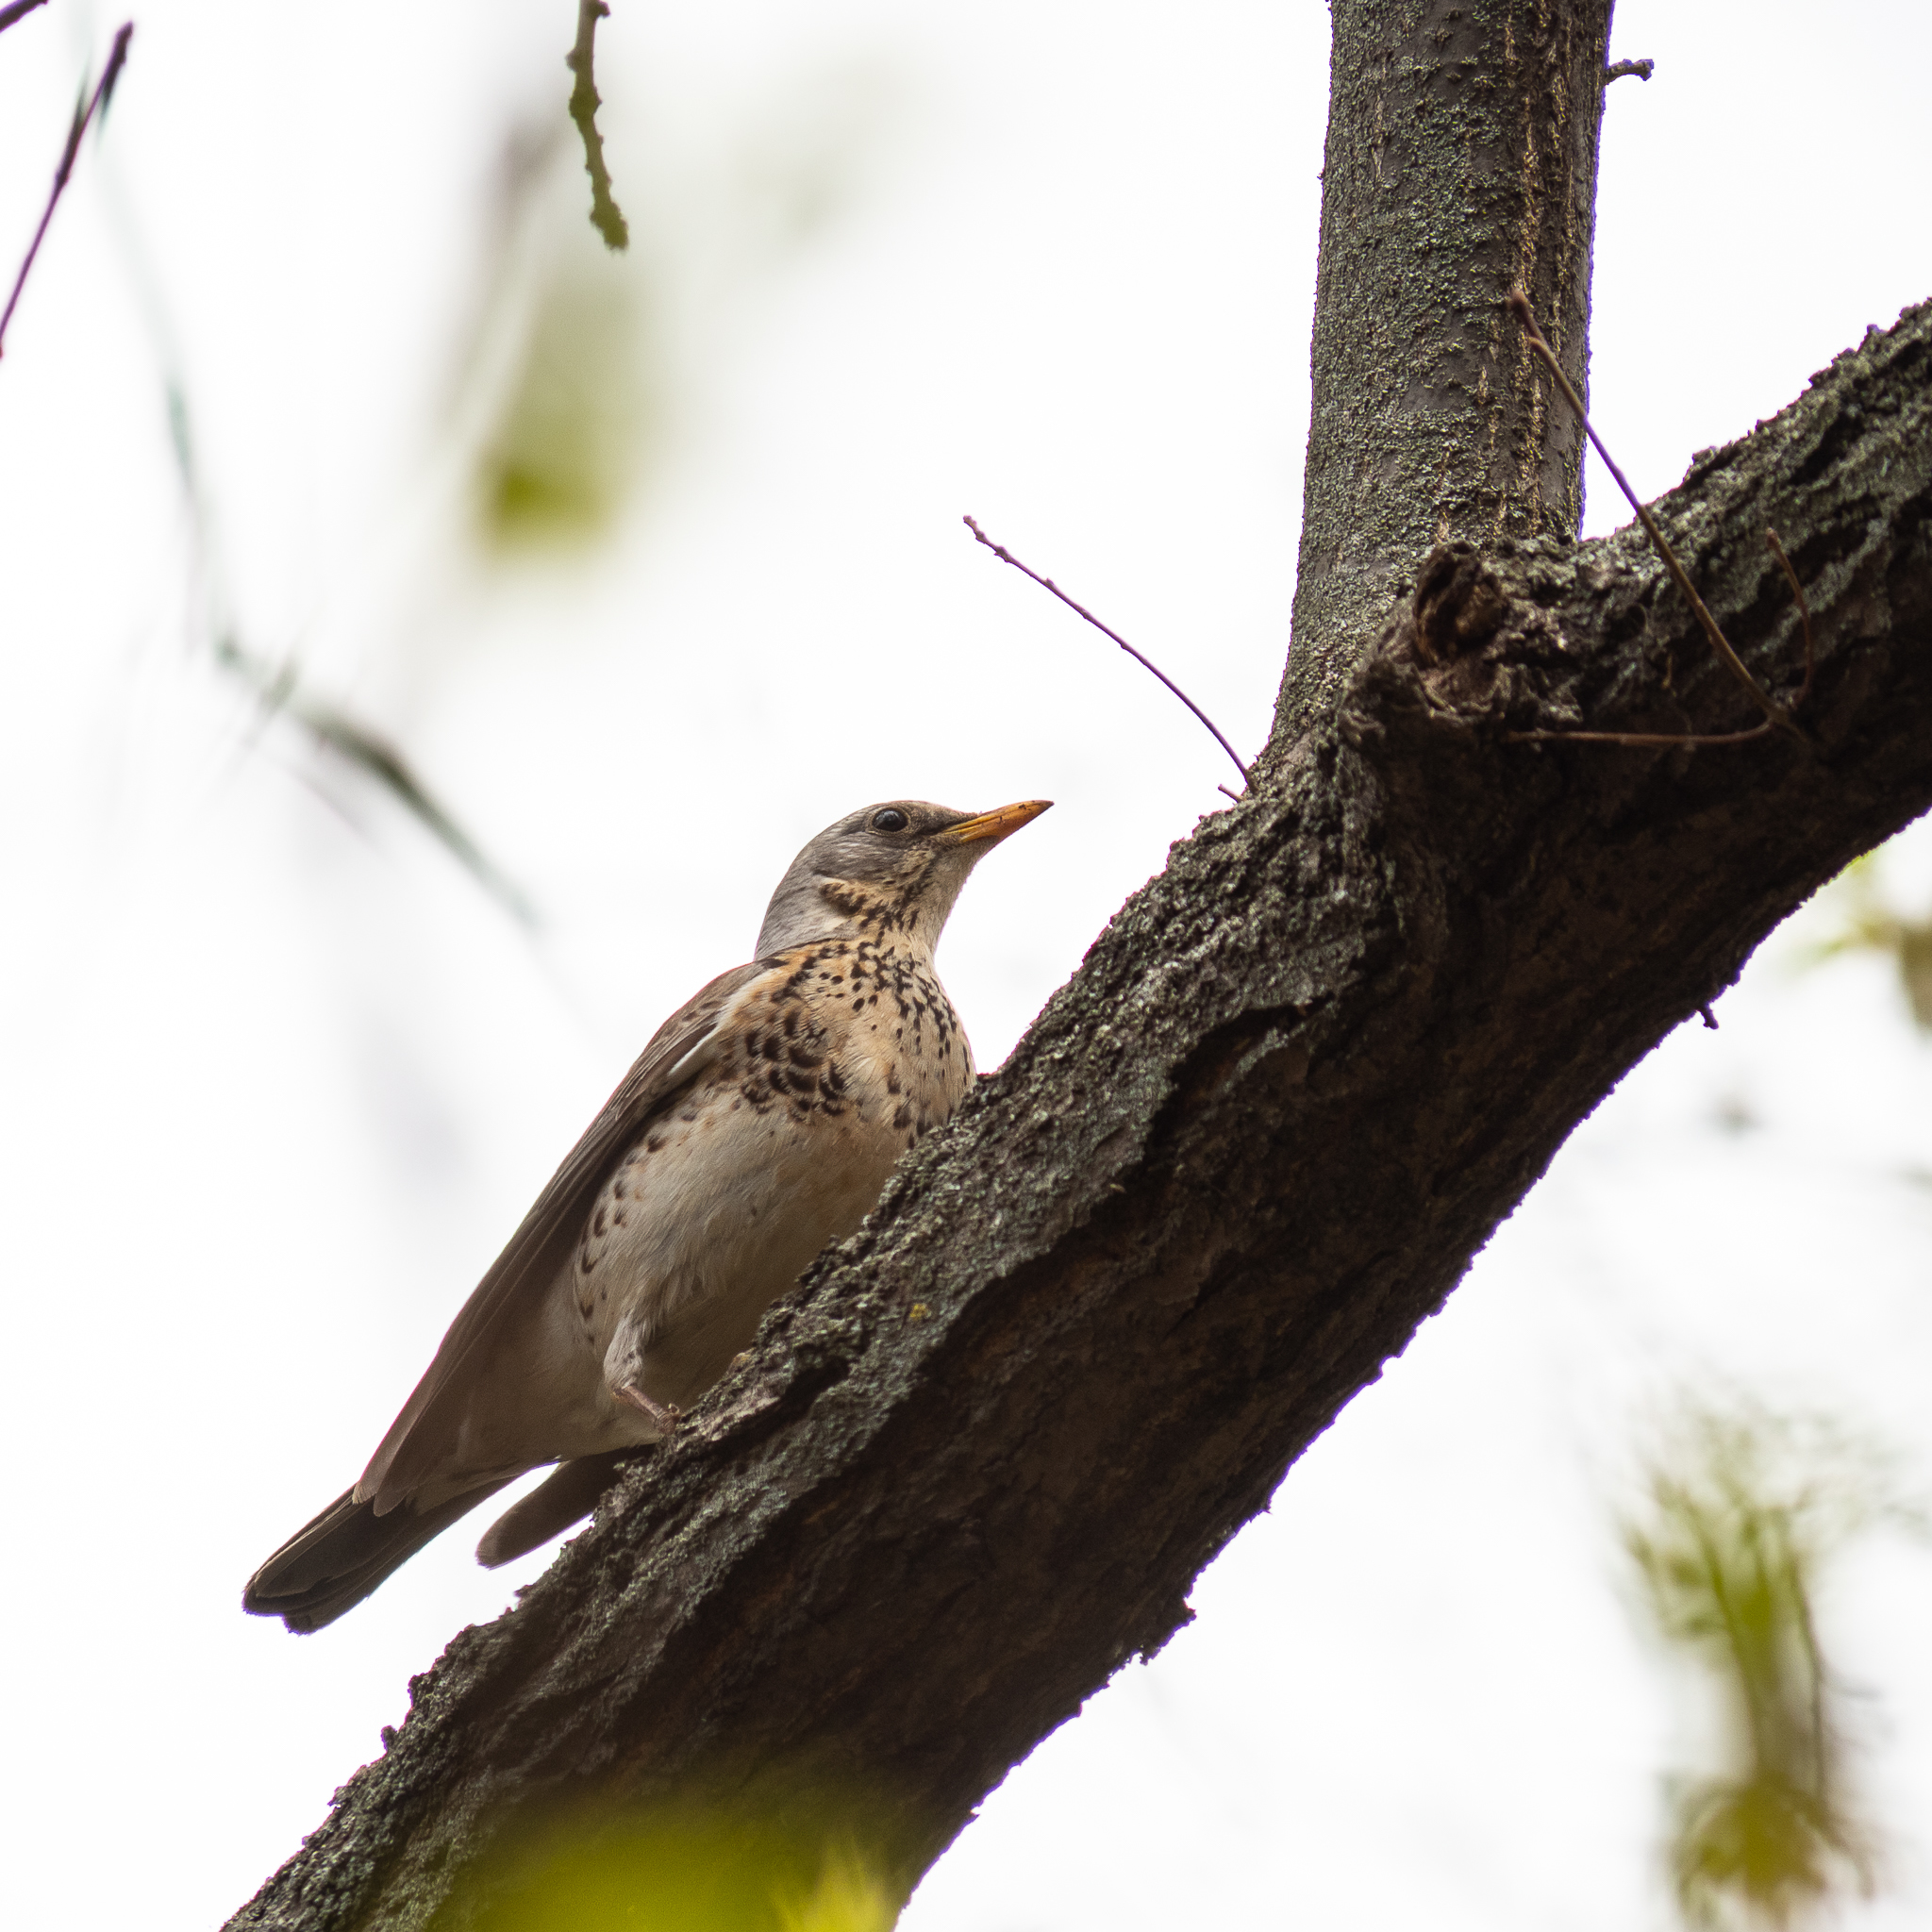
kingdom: Animalia
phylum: Chordata
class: Aves
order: Passeriformes
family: Turdidae
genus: Turdus
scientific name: Turdus pilaris
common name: Fieldfare
